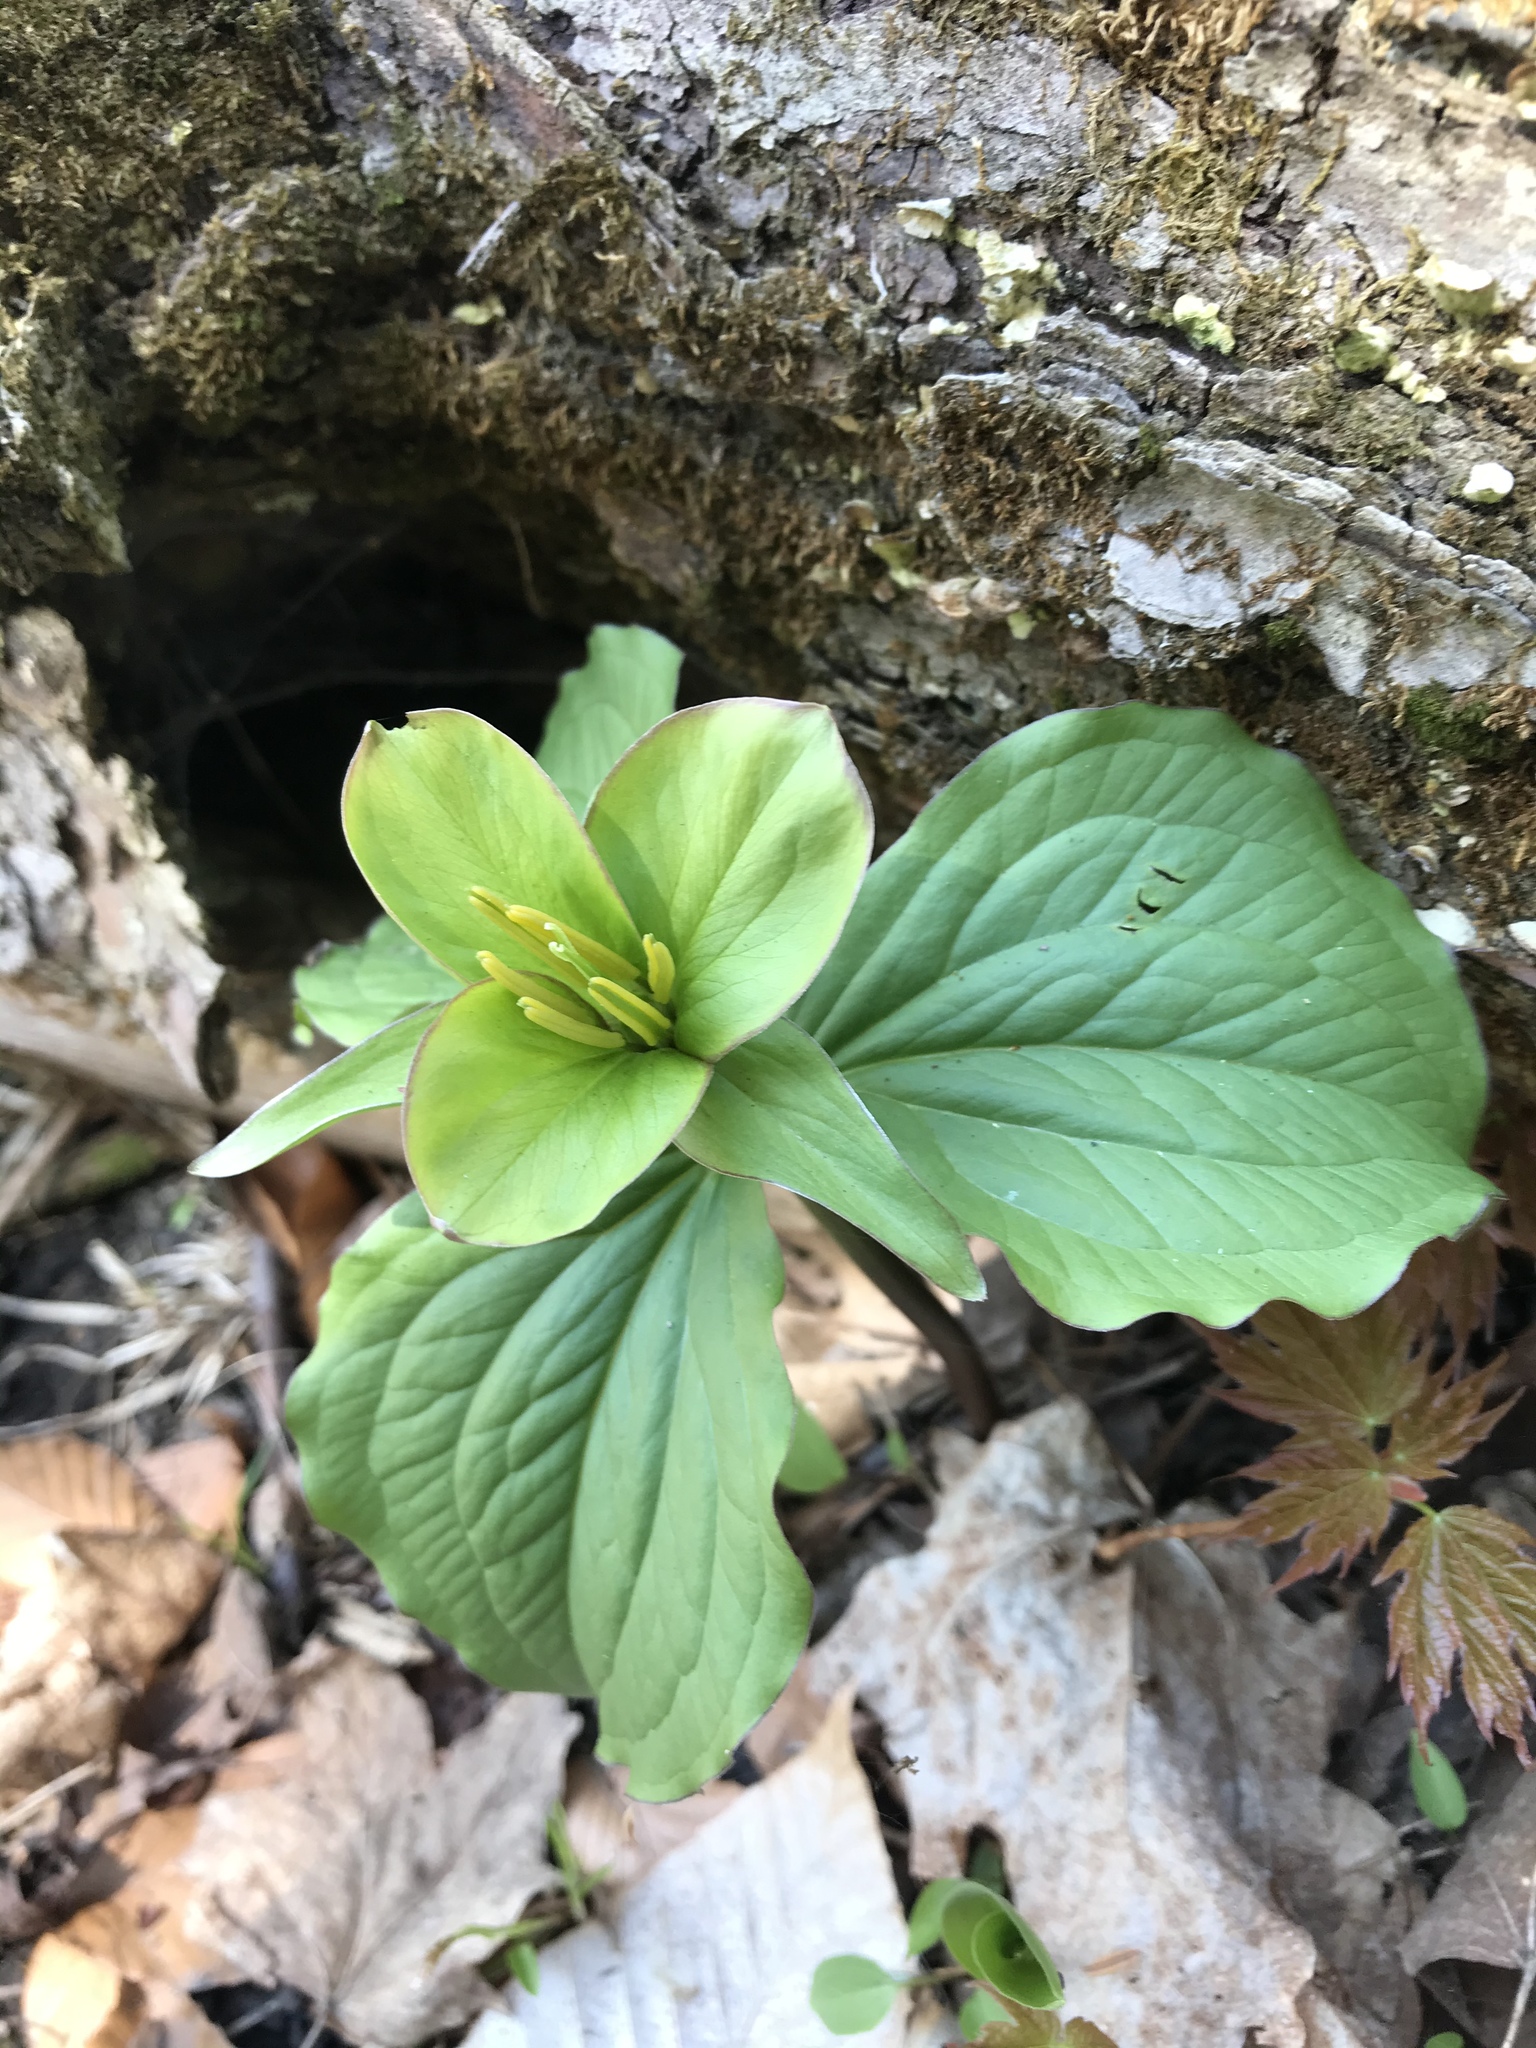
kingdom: Plantae
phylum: Tracheophyta
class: Liliopsida
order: Liliales
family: Melanthiaceae
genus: Trillium
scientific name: Trillium grandiflorum
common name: Great white trillium
